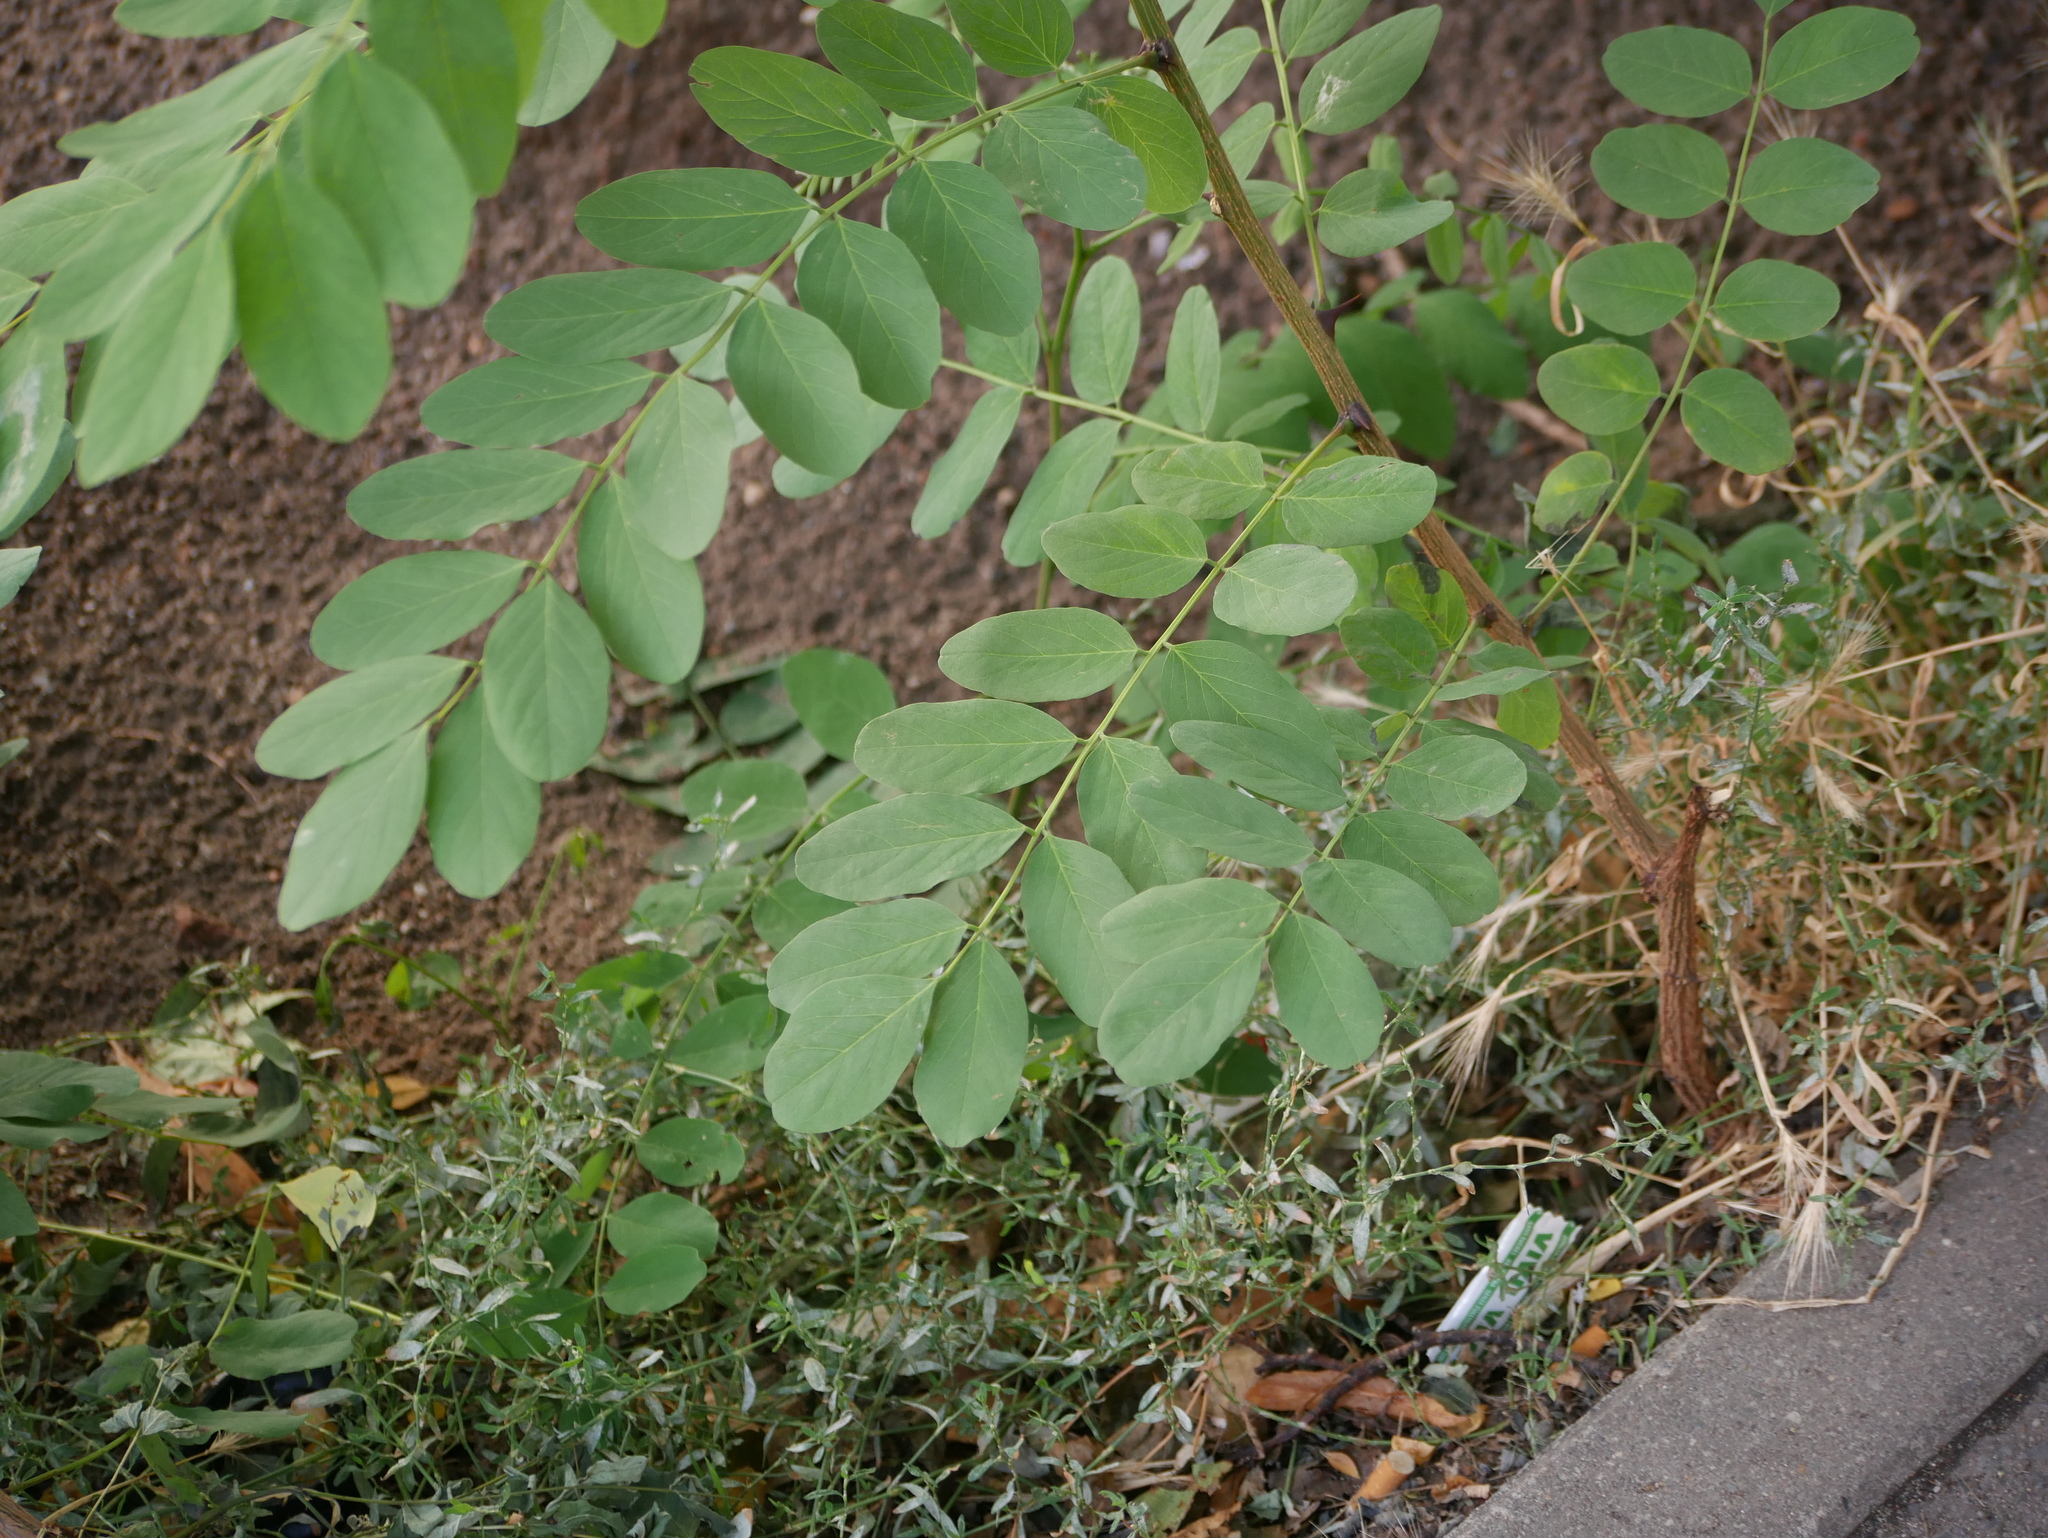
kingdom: Plantae
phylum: Tracheophyta
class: Magnoliopsida
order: Fabales
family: Fabaceae
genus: Robinia
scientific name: Robinia pseudoacacia
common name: Black locust
